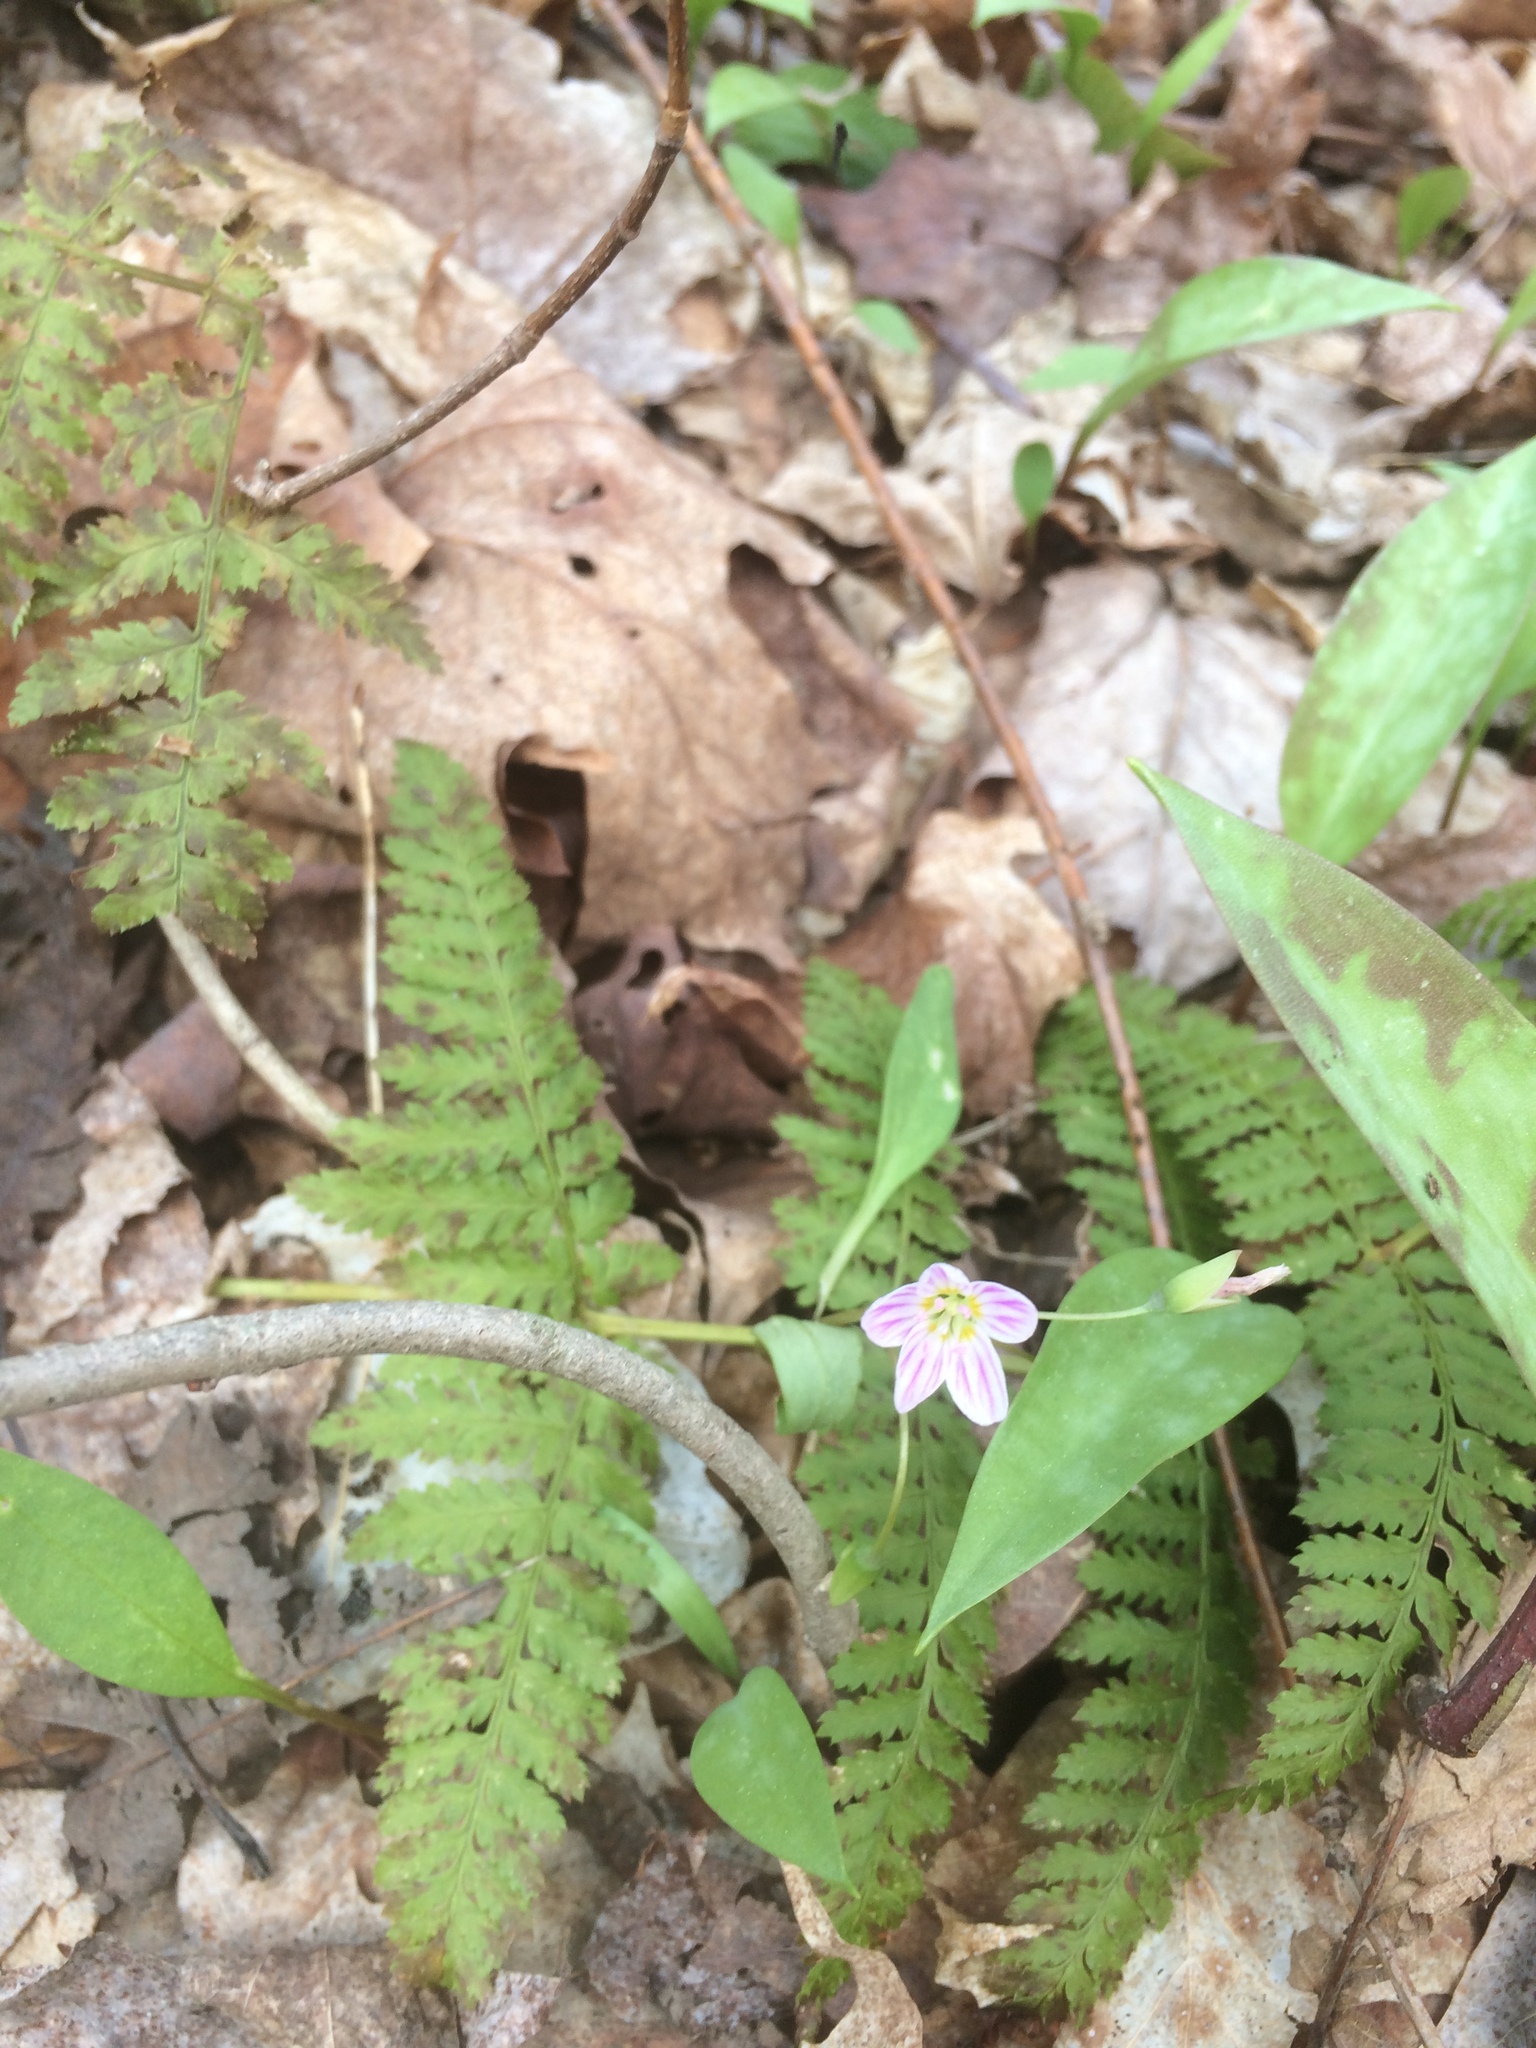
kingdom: Plantae
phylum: Tracheophyta
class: Magnoliopsida
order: Caryophyllales
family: Montiaceae
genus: Claytonia
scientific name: Claytonia caroliniana
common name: Carolina spring beauty
